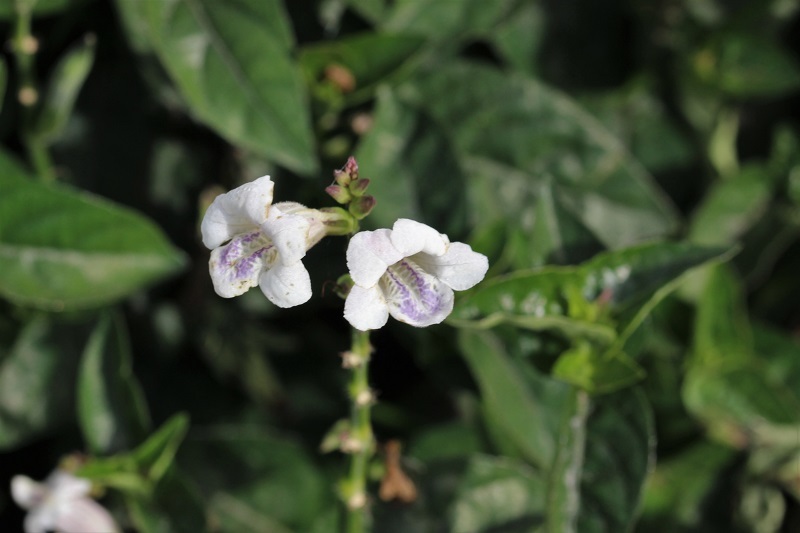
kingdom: Plantae
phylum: Tracheophyta
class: Magnoliopsida
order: Lamiales
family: Acanthaceae
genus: Asystasia
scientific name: Asystasia intrusa
